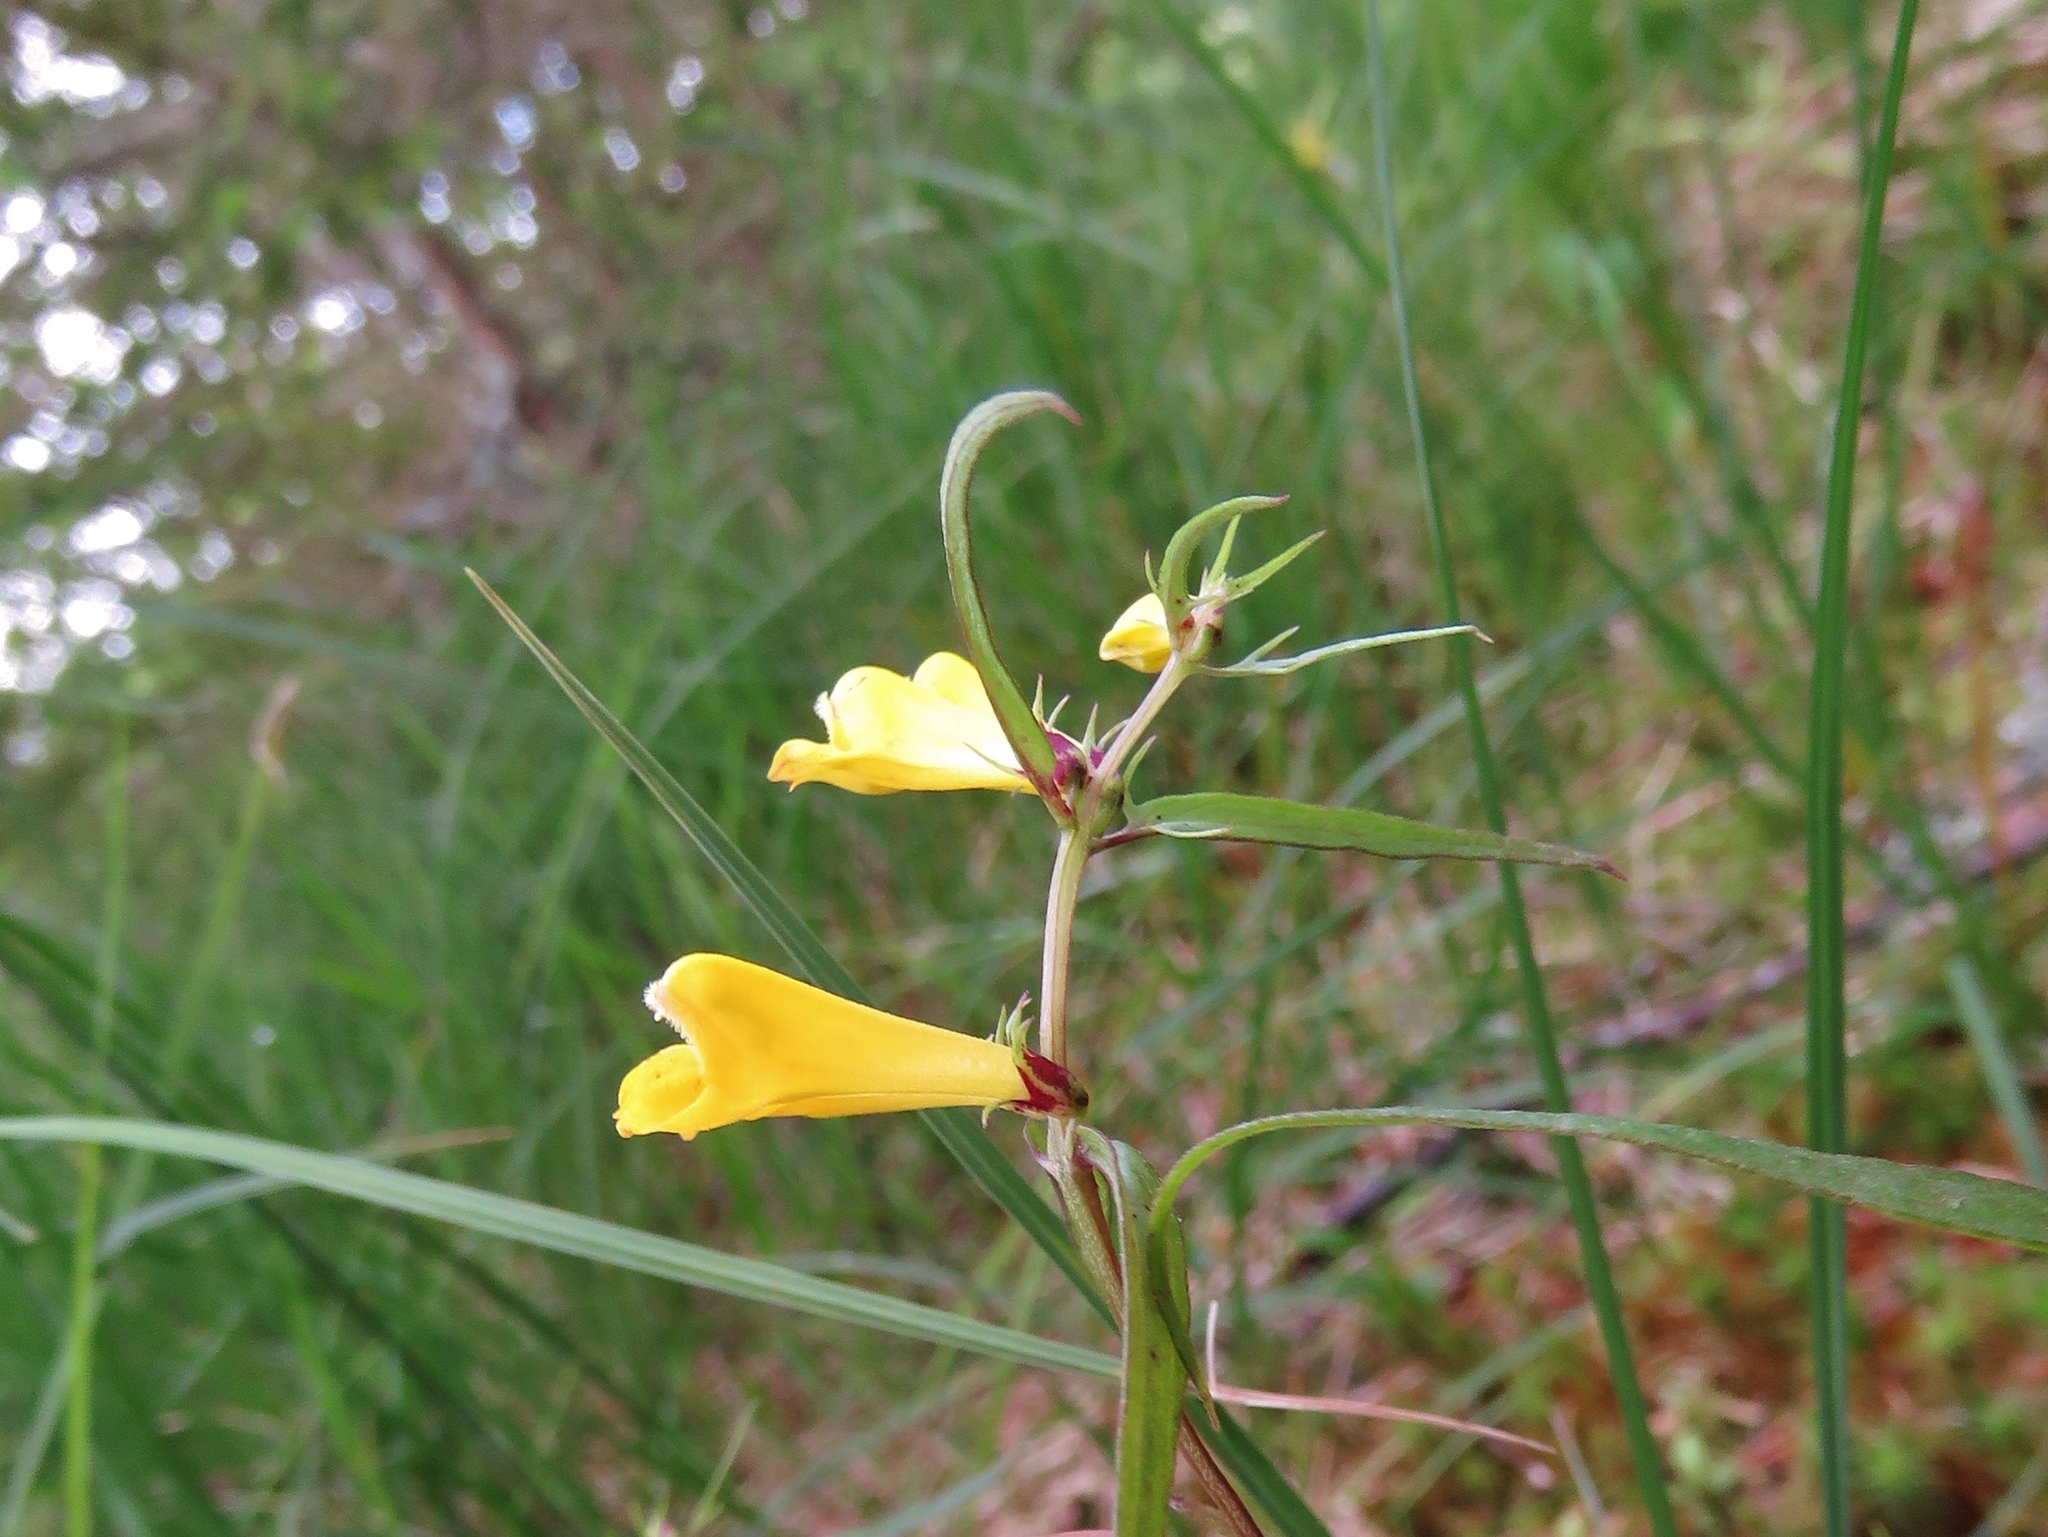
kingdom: Plantae
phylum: Tracheophyta
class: Magnoliopsida
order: Lamiales
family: Orobanchaceae
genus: Melampyrum
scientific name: Melampyrum pratense
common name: Common cow-wheat
